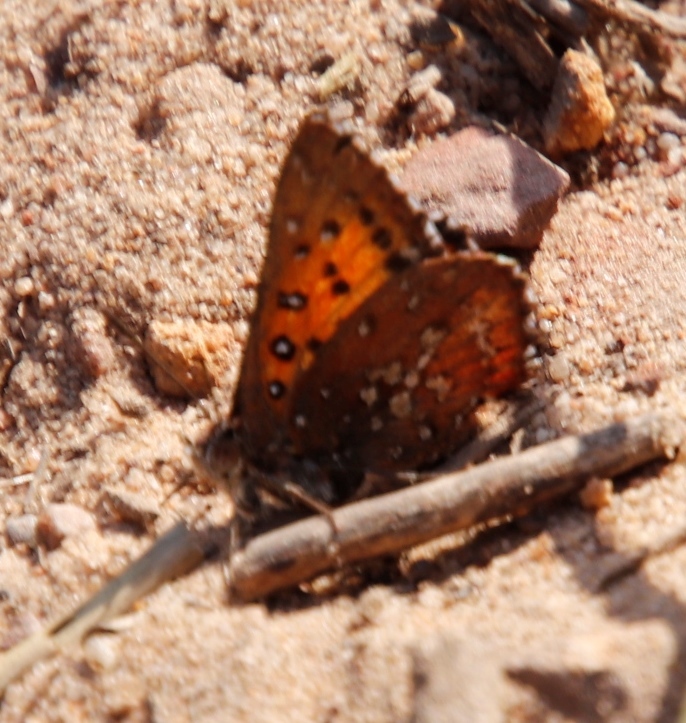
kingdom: Animalia
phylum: Arthropoda
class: Insecta
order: Lepidoptera
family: Lycaenidae
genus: Aloeides
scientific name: Aloeides thyra
